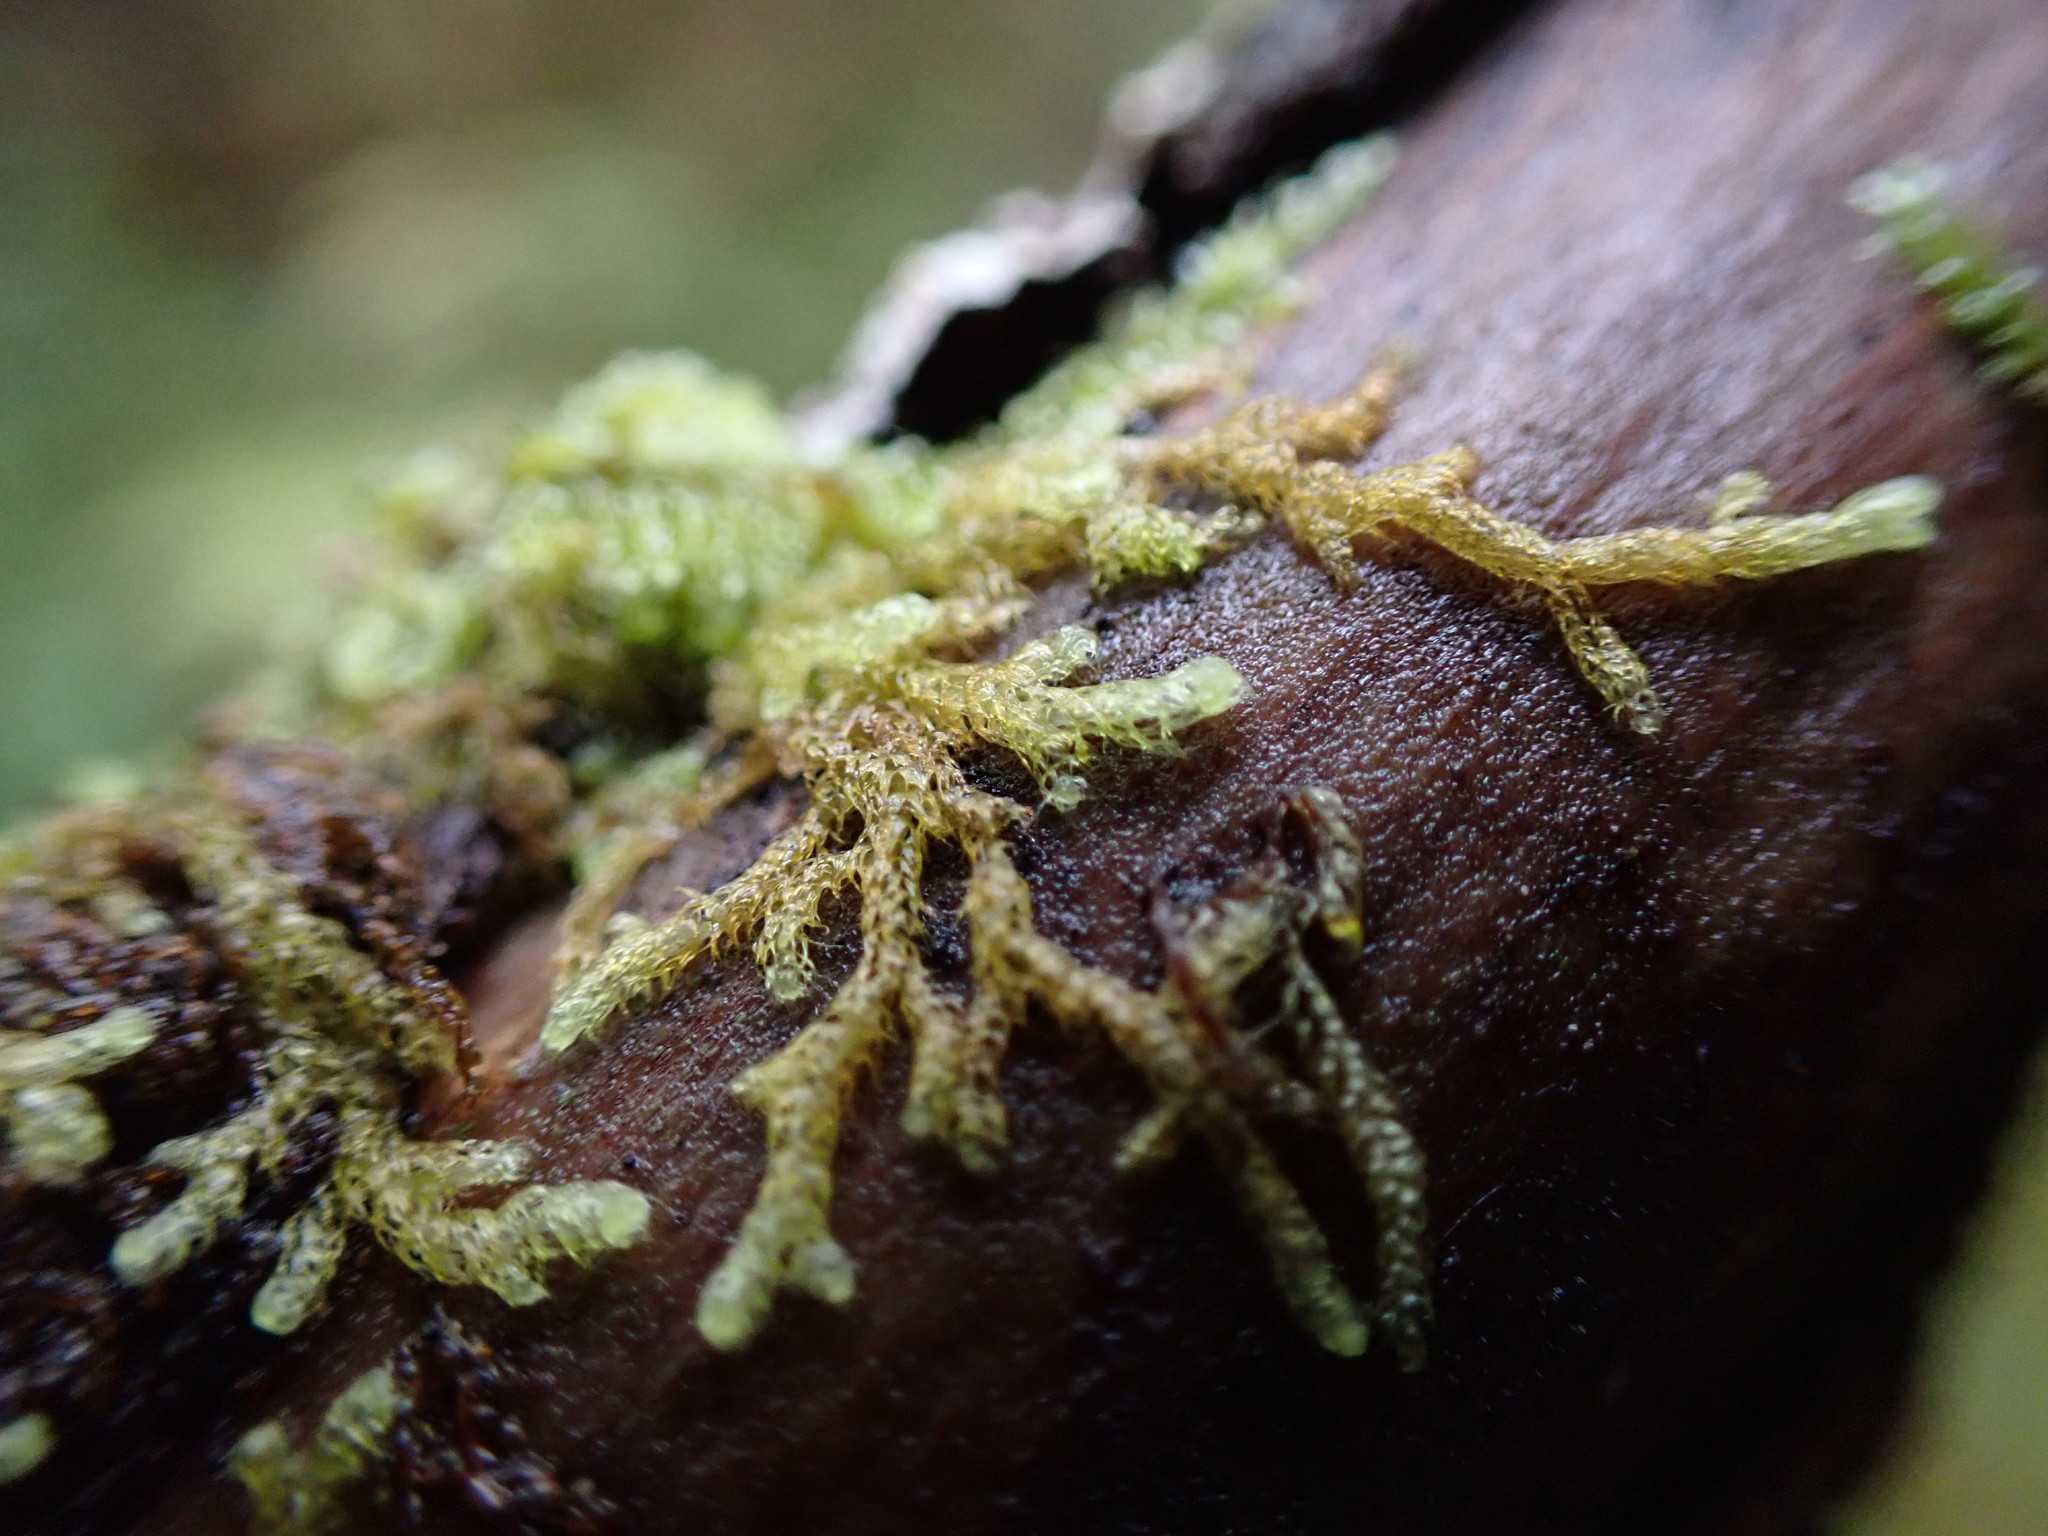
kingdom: Plantae
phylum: Marchantiophyta
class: Jungermanniopsida
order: Ptilidiales
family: Ptilidiaceae
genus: Ptilidium
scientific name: Ptilidium californicum
